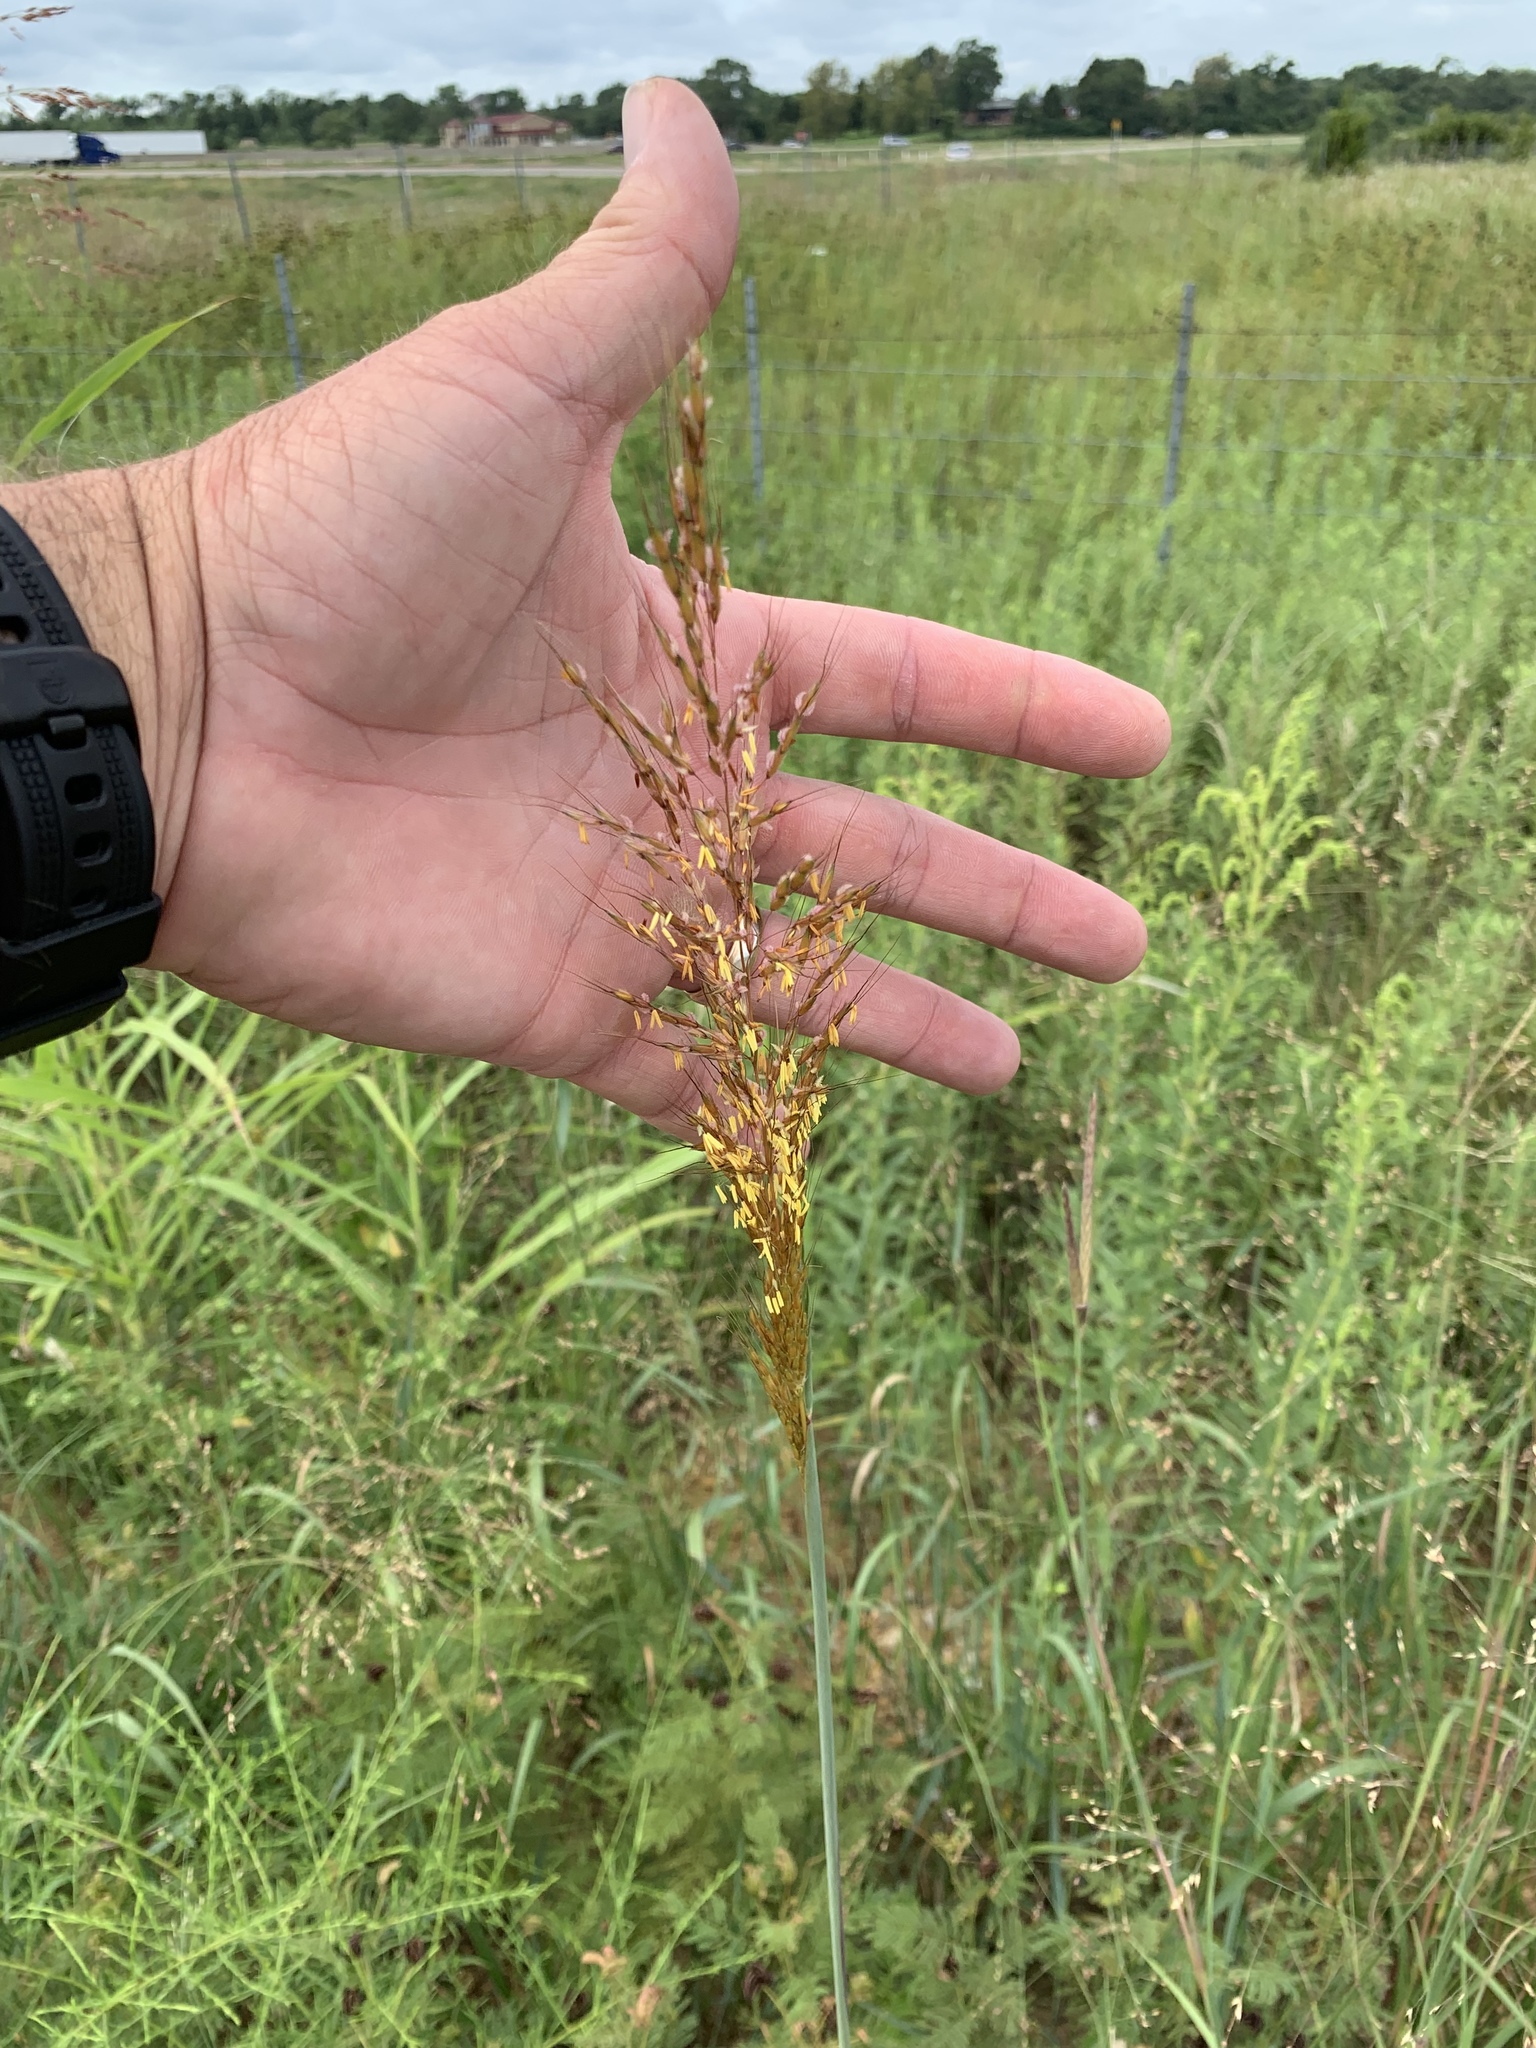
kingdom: Plantae
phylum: Tracheophyta
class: Liliopsida
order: Poales
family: Poaceae
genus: Sorghastrum
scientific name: Sorghastrum nutans
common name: Indian grass
